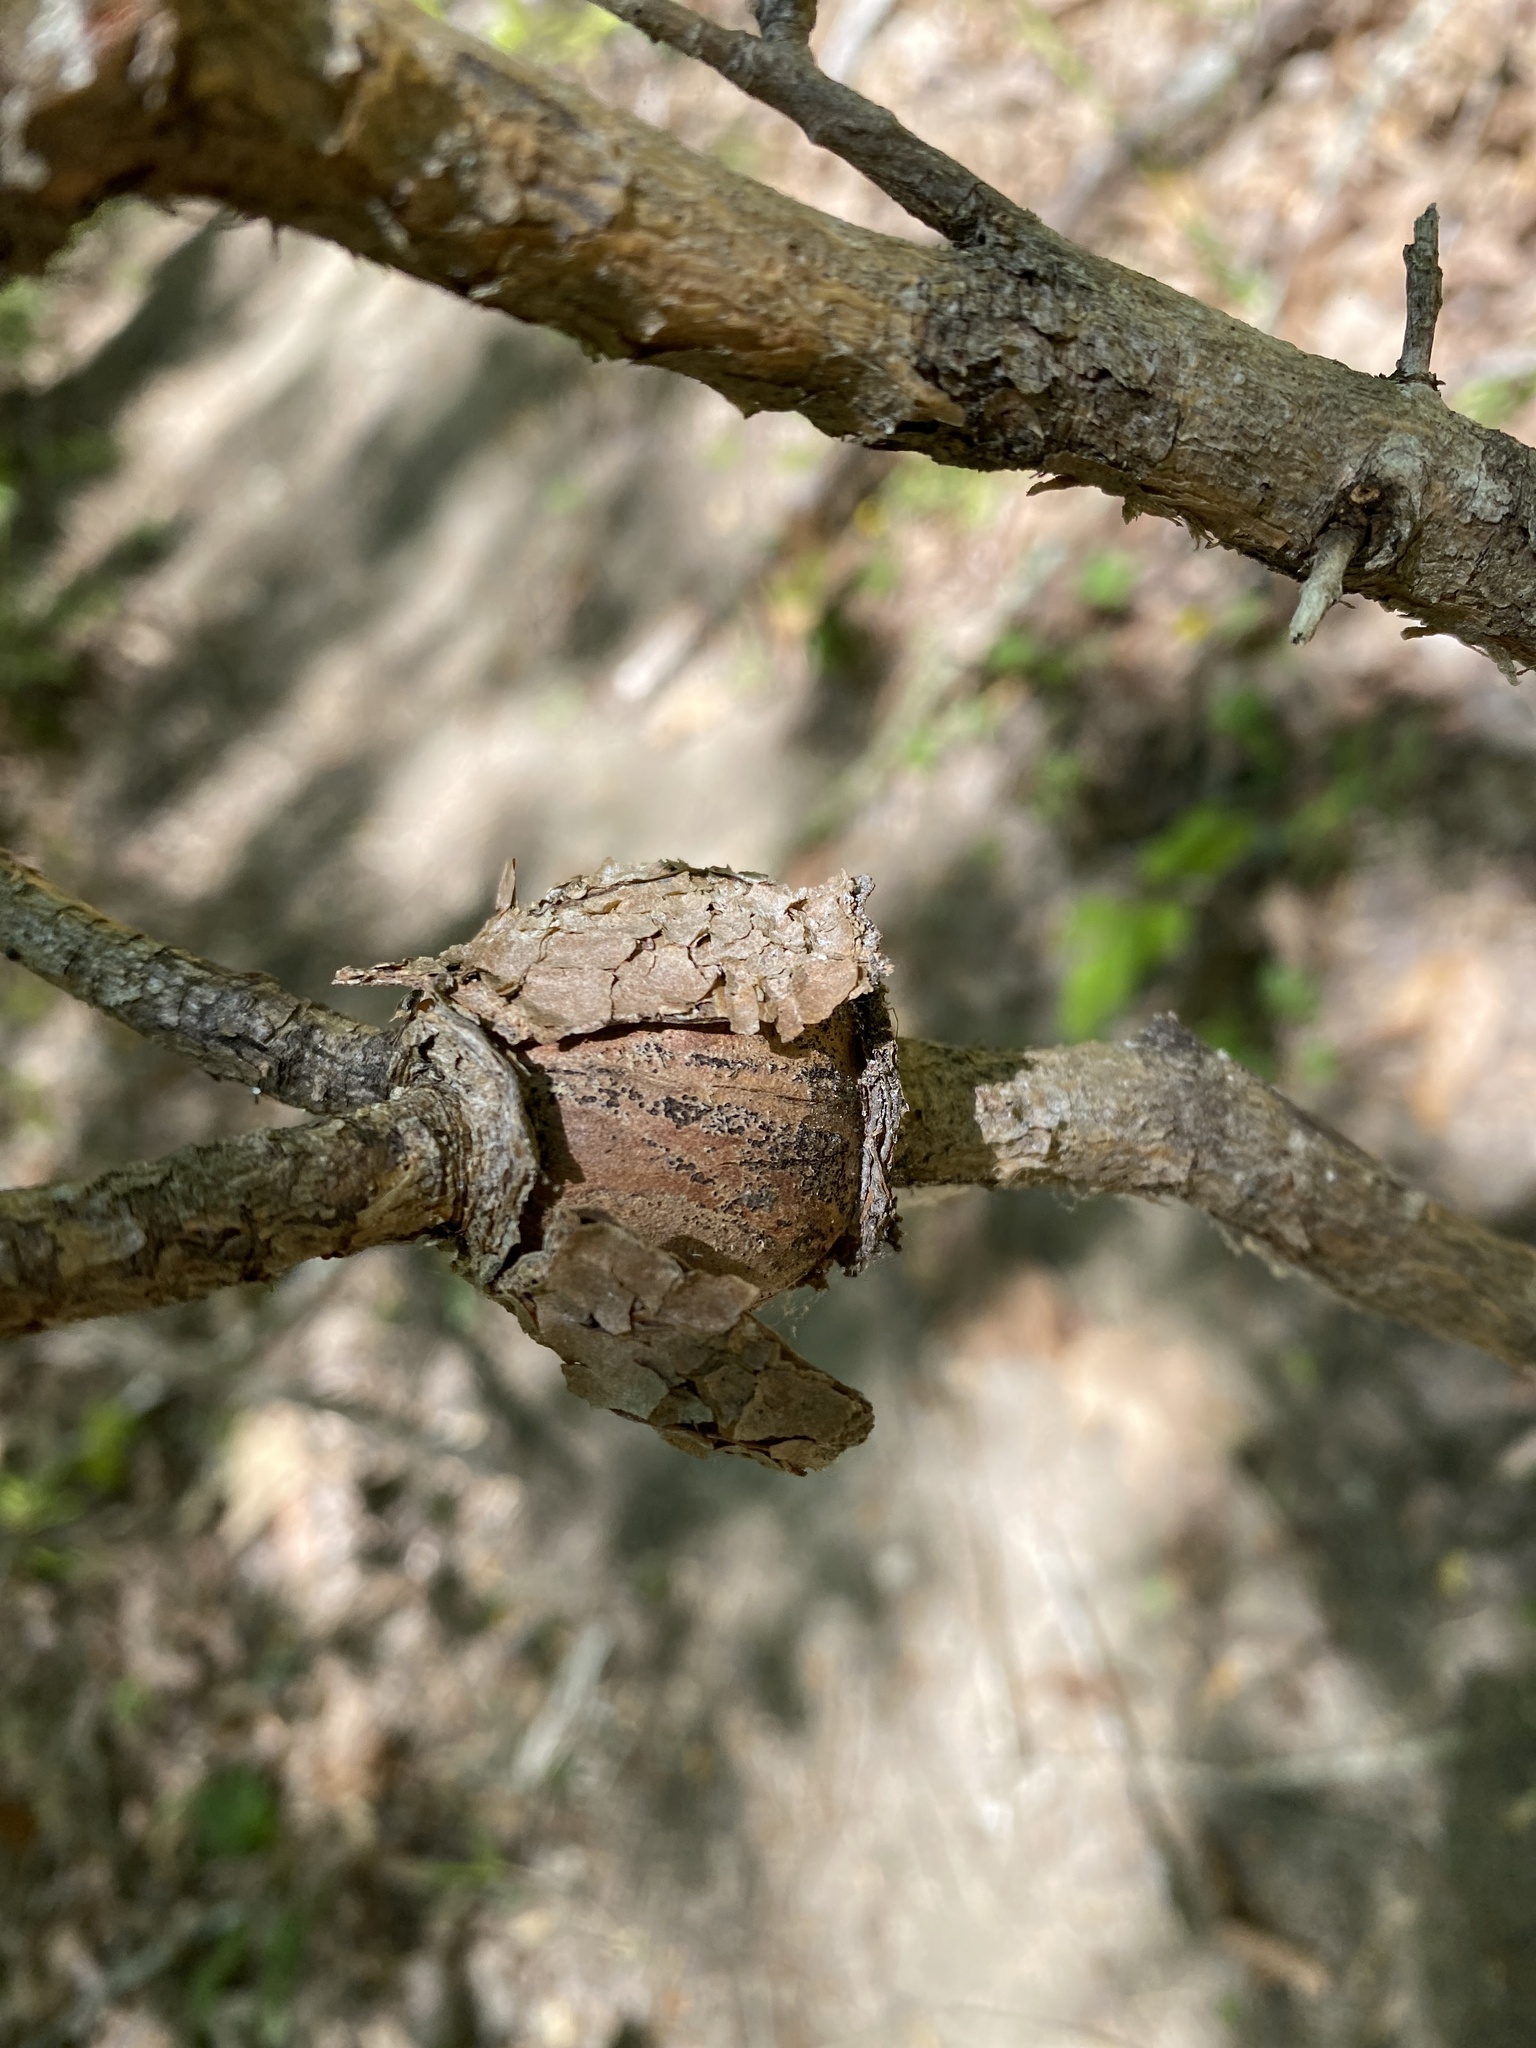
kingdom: Fungi
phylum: Basidiomycota
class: Pucciniomycetes
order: Pucciniales
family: Cronartiaceae
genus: Cronartium
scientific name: Cronartium quercuum
